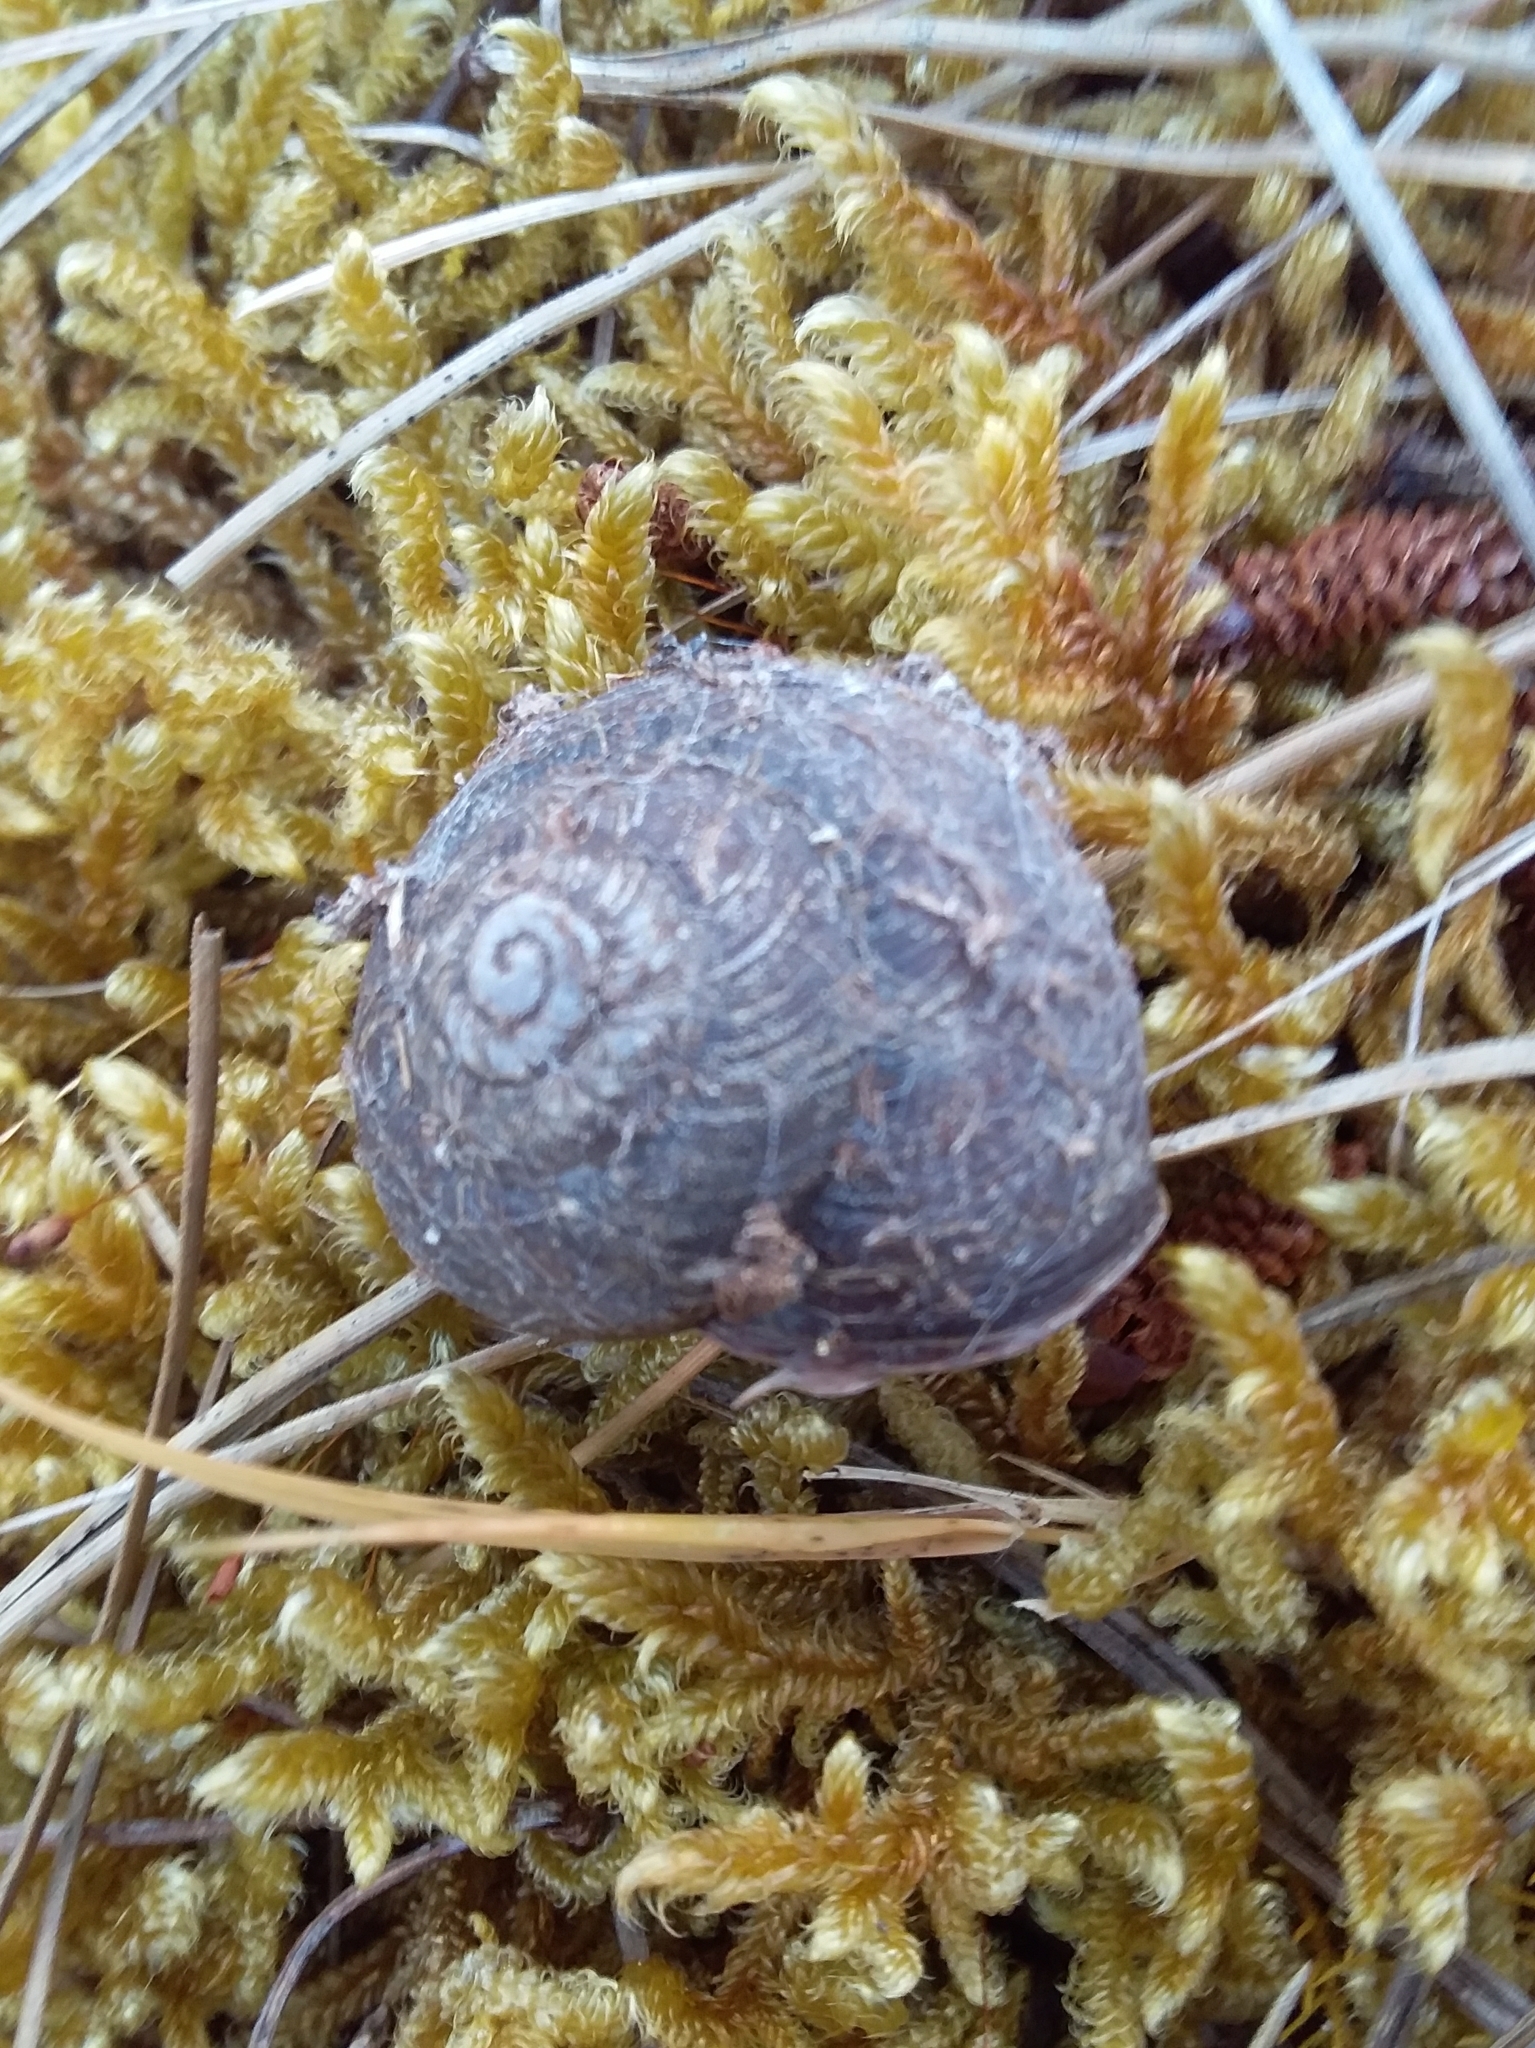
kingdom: Animalia
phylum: Mollusca
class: Gastropoda
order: Stylommatophora
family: Camaenidae
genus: Cupedora
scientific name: Cupedora bednalli
